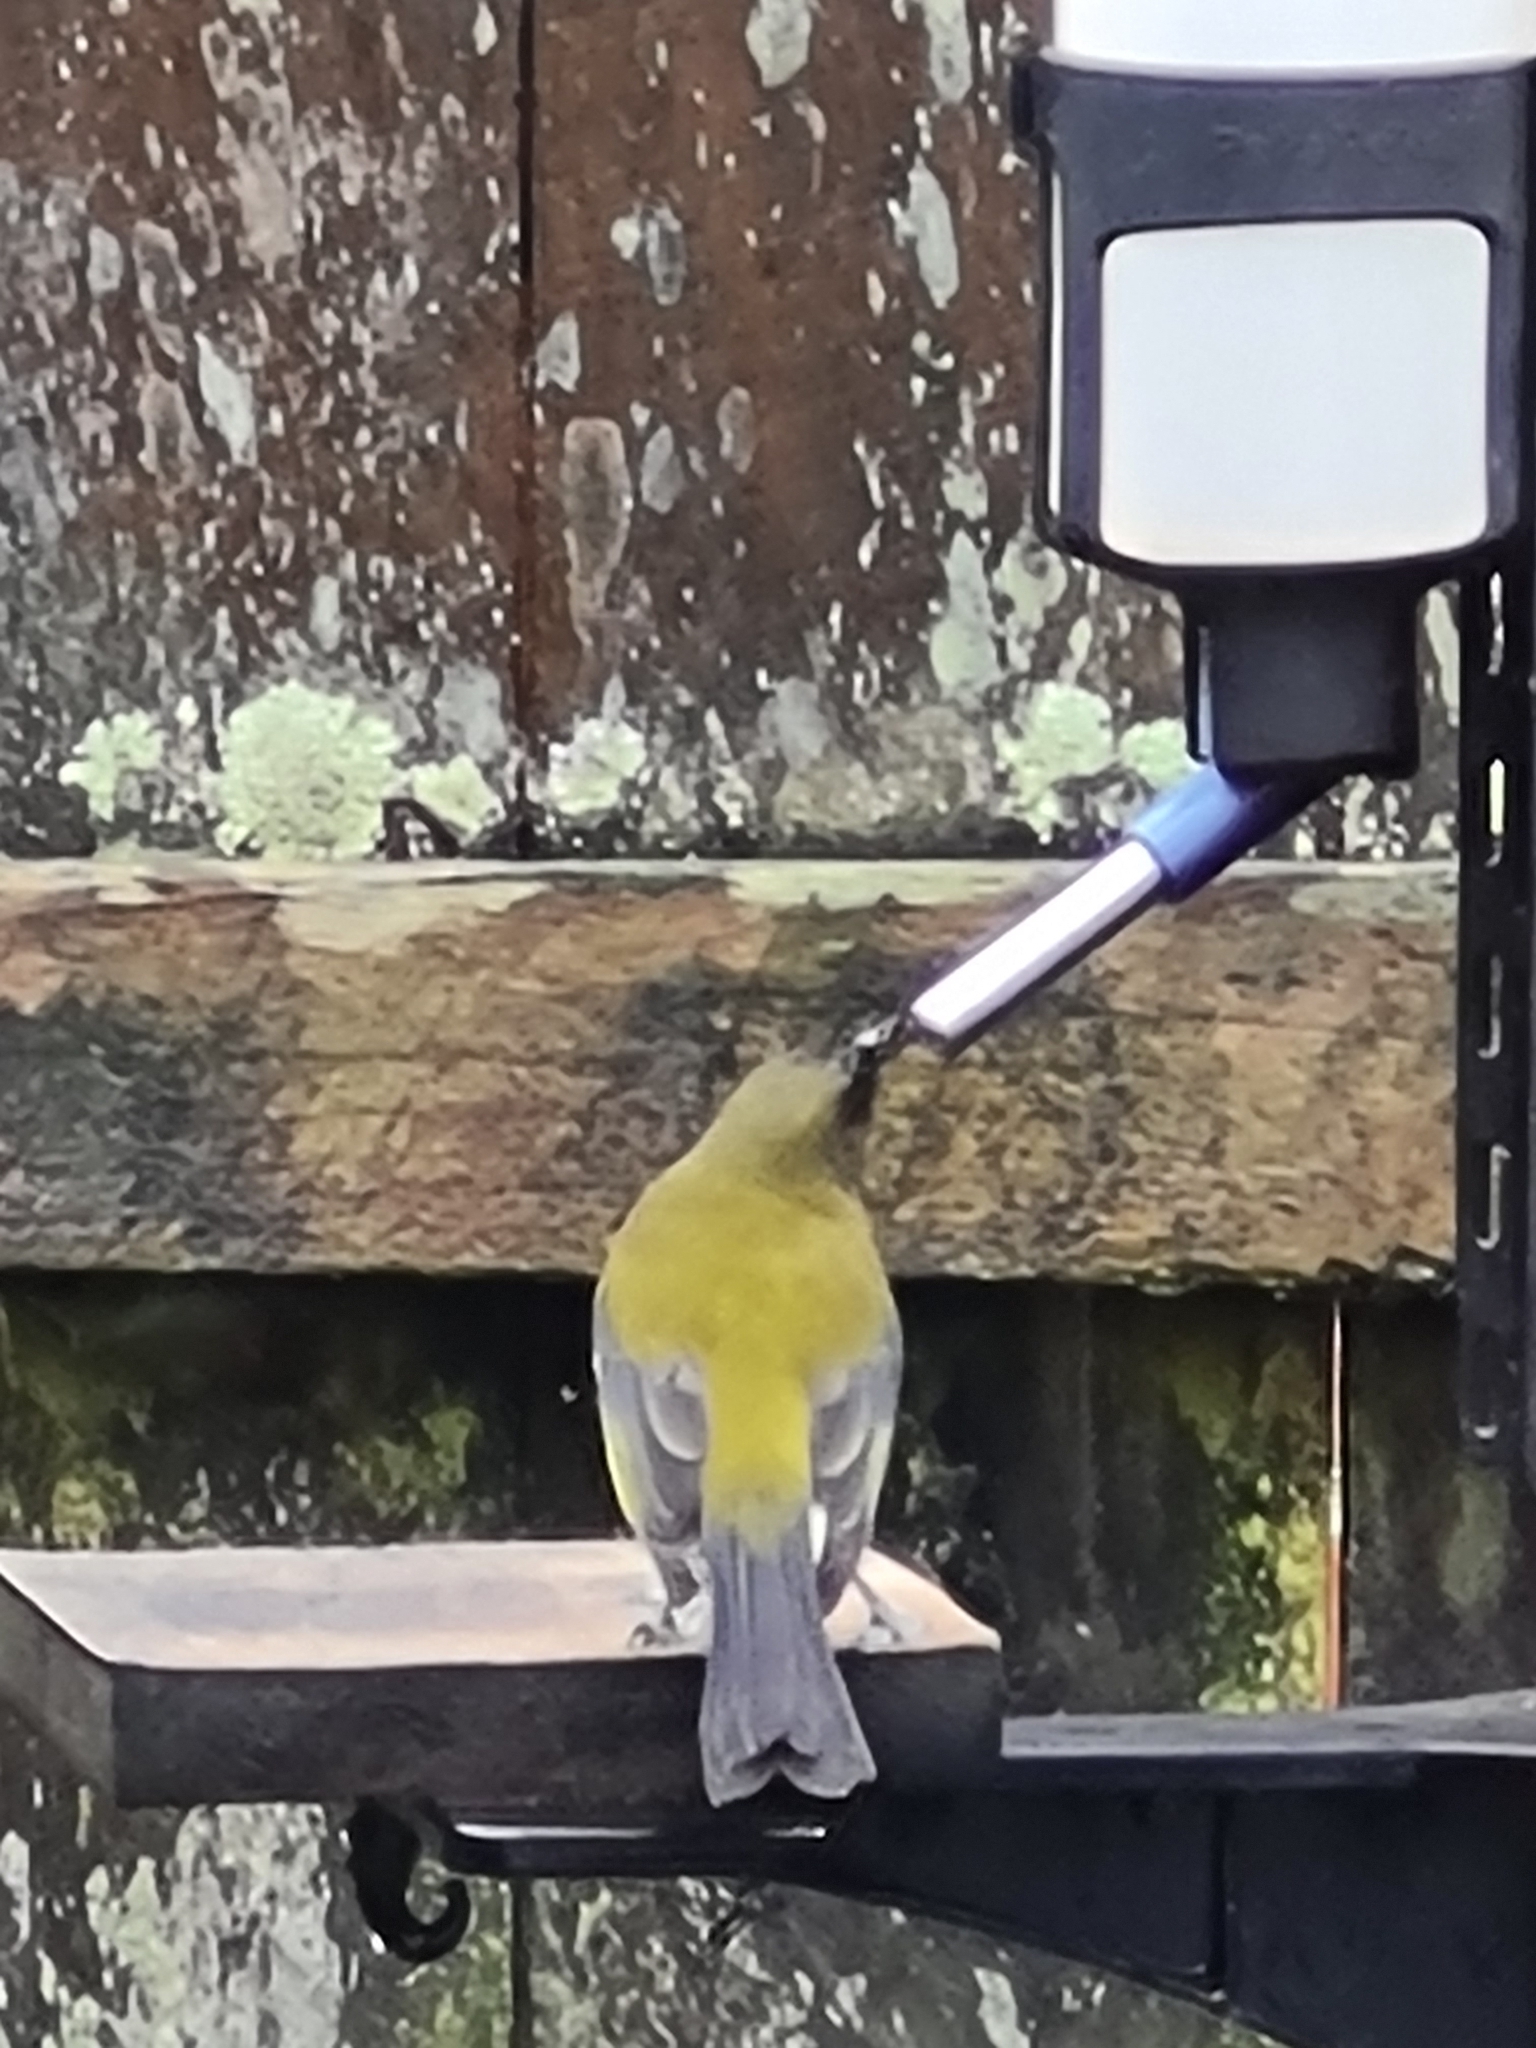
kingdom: Animalia
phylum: Chordata
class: Aves
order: Passeriformes
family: Meliphagidae
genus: Anthornis
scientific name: Anthornis melanura
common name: New zealand bellbird
